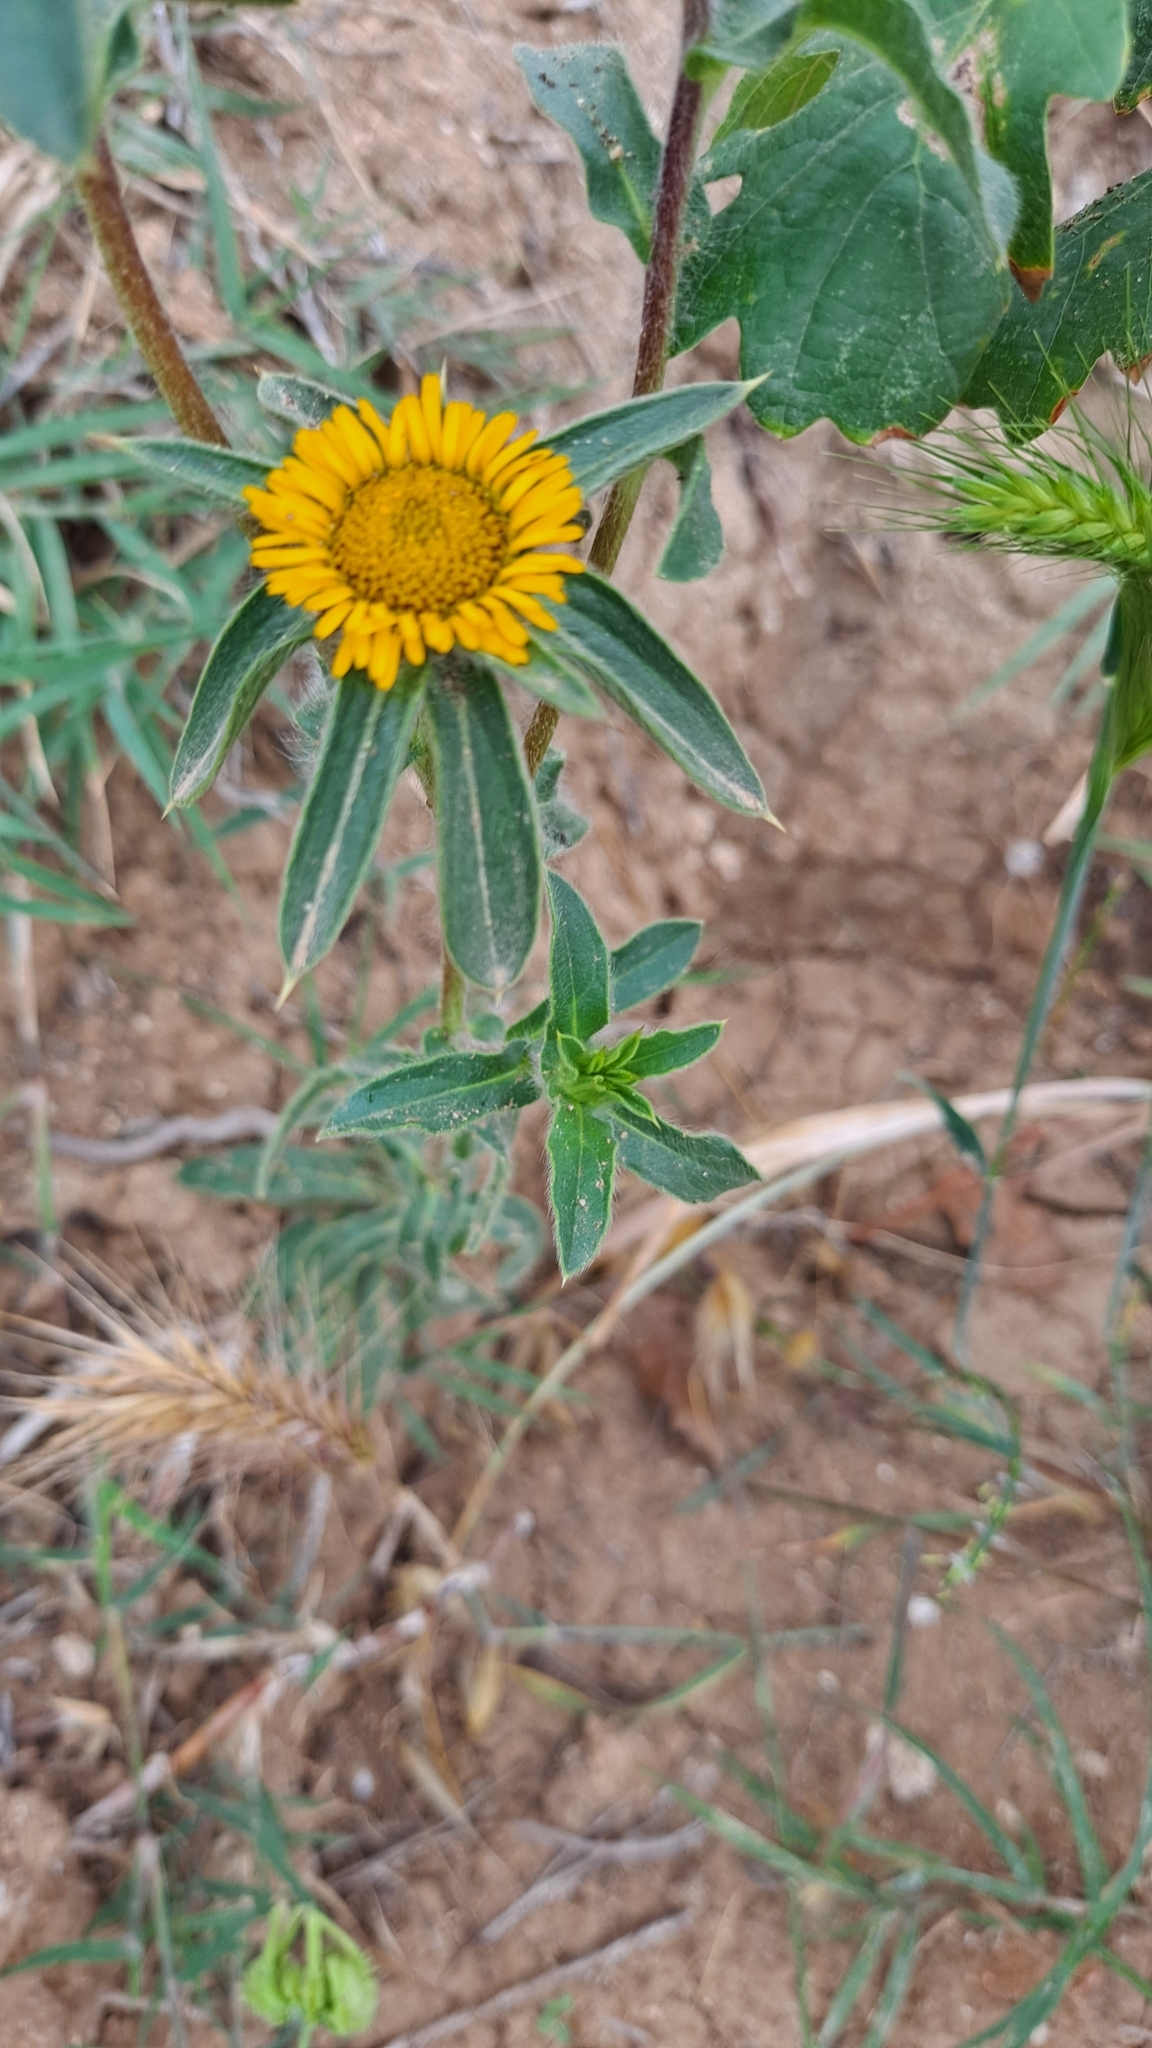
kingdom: Plantae
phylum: Tracheophyta
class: Magnoliopsida
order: Asterales
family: Asteraceae
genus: Pallenis
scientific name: Pallenis spinosa
